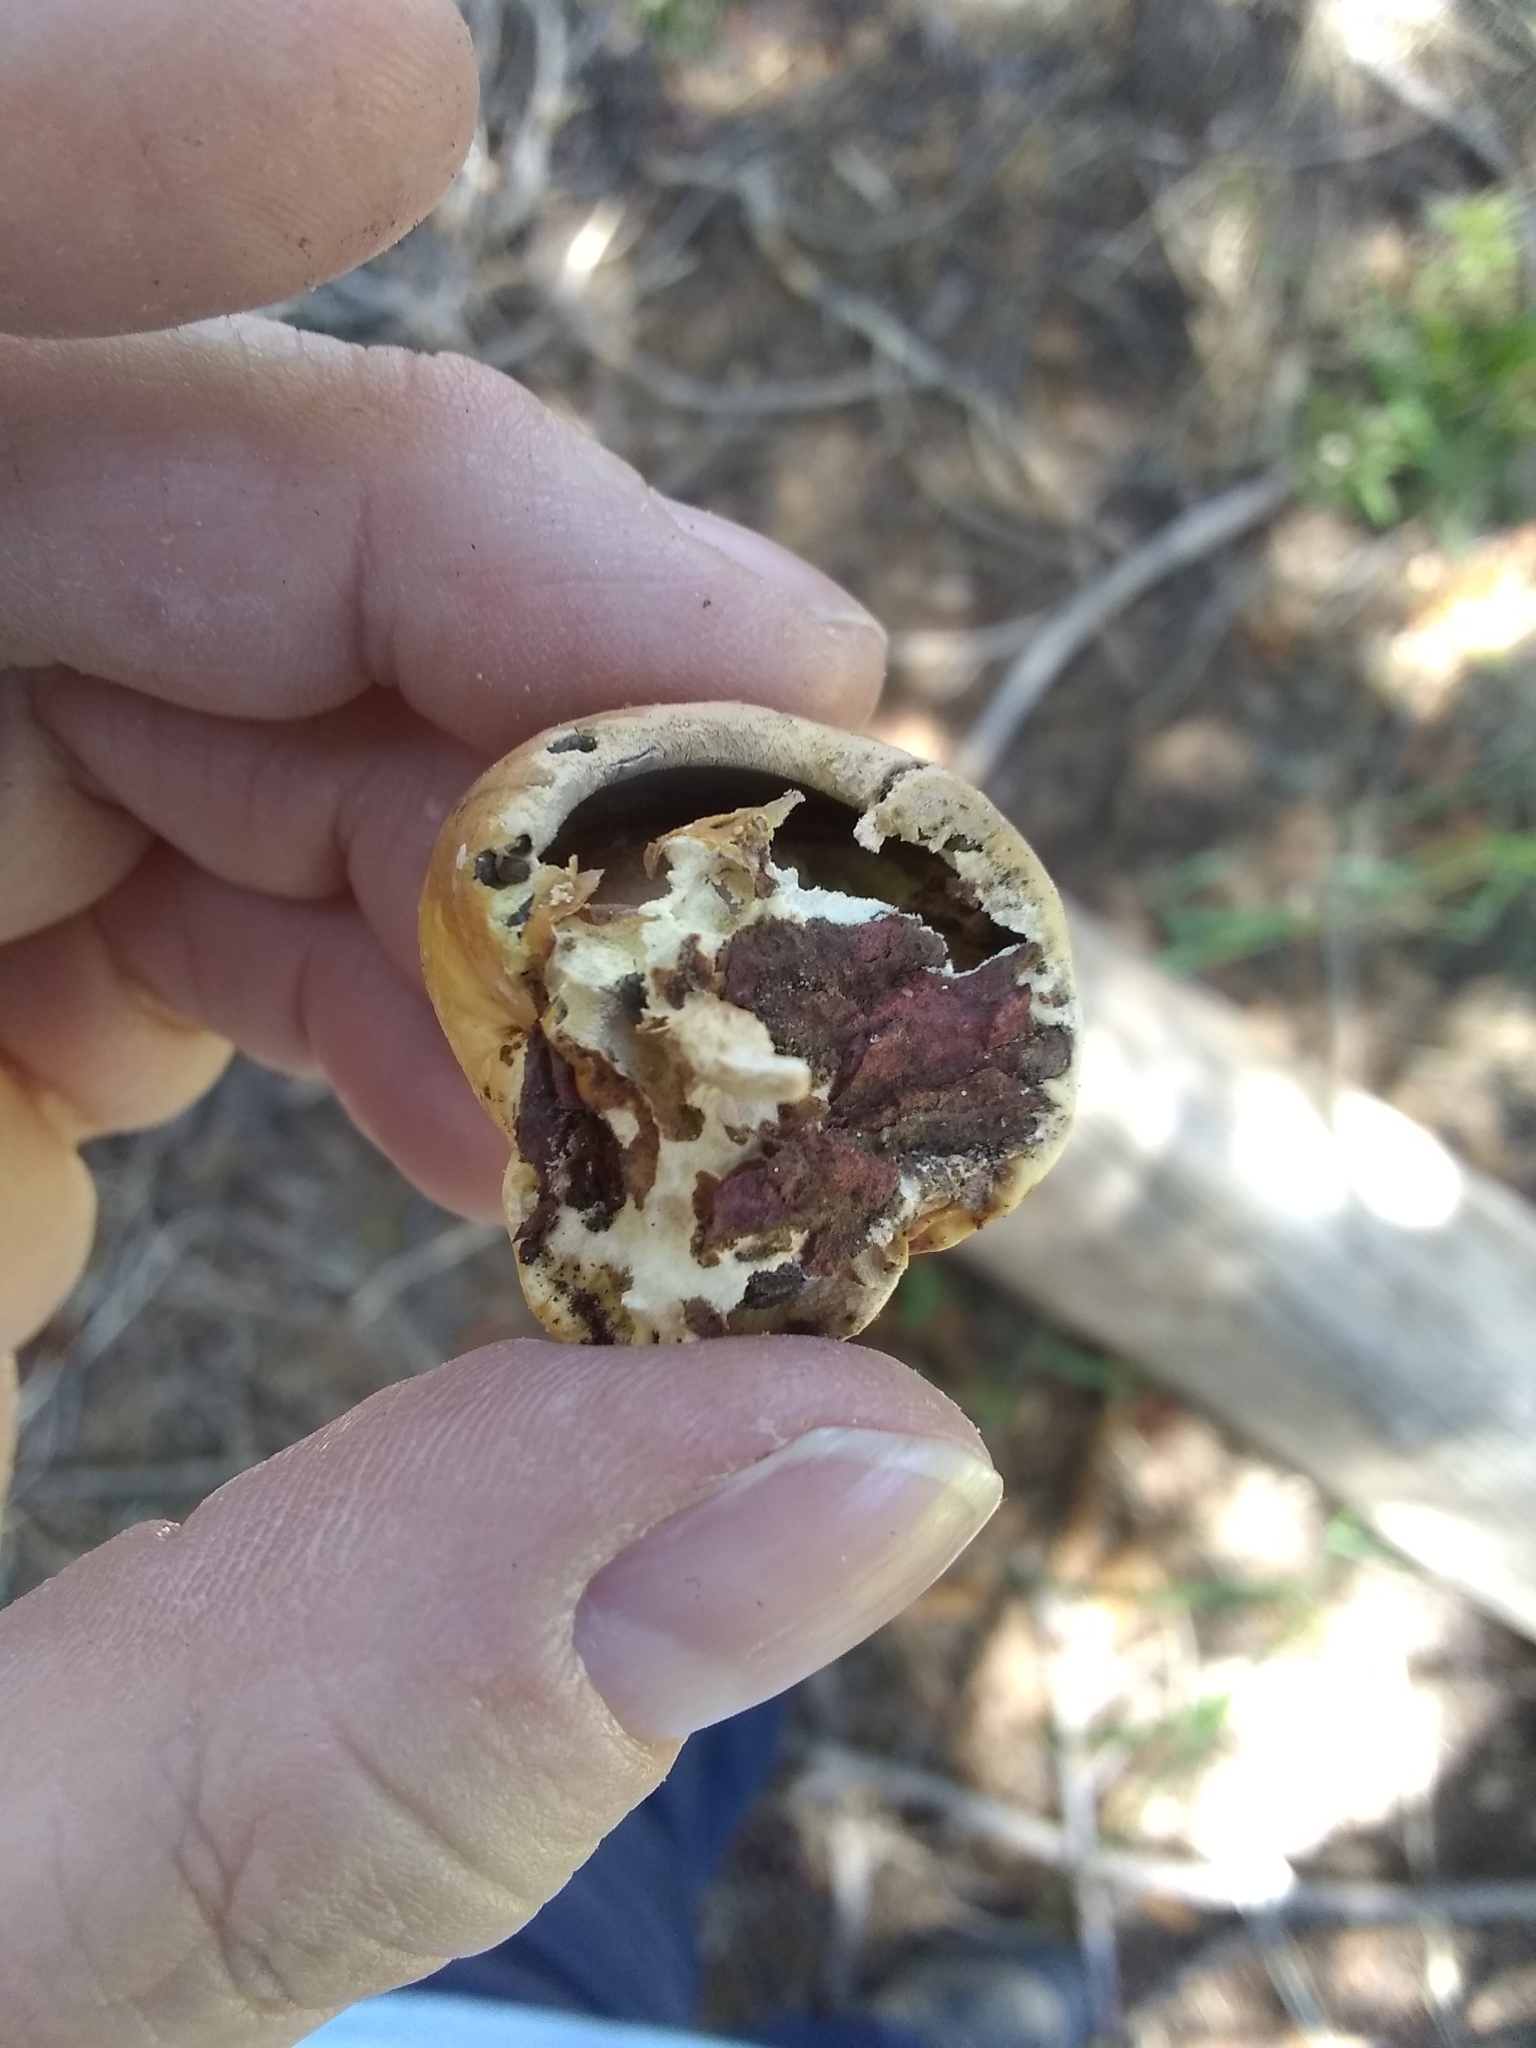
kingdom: Fungi
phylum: Basidiomycota
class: Agaricomycetes
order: Polyporales
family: Polyporaceae
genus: Cryptoporus
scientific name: Cryptoporus volvatus
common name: Veiled polypore
